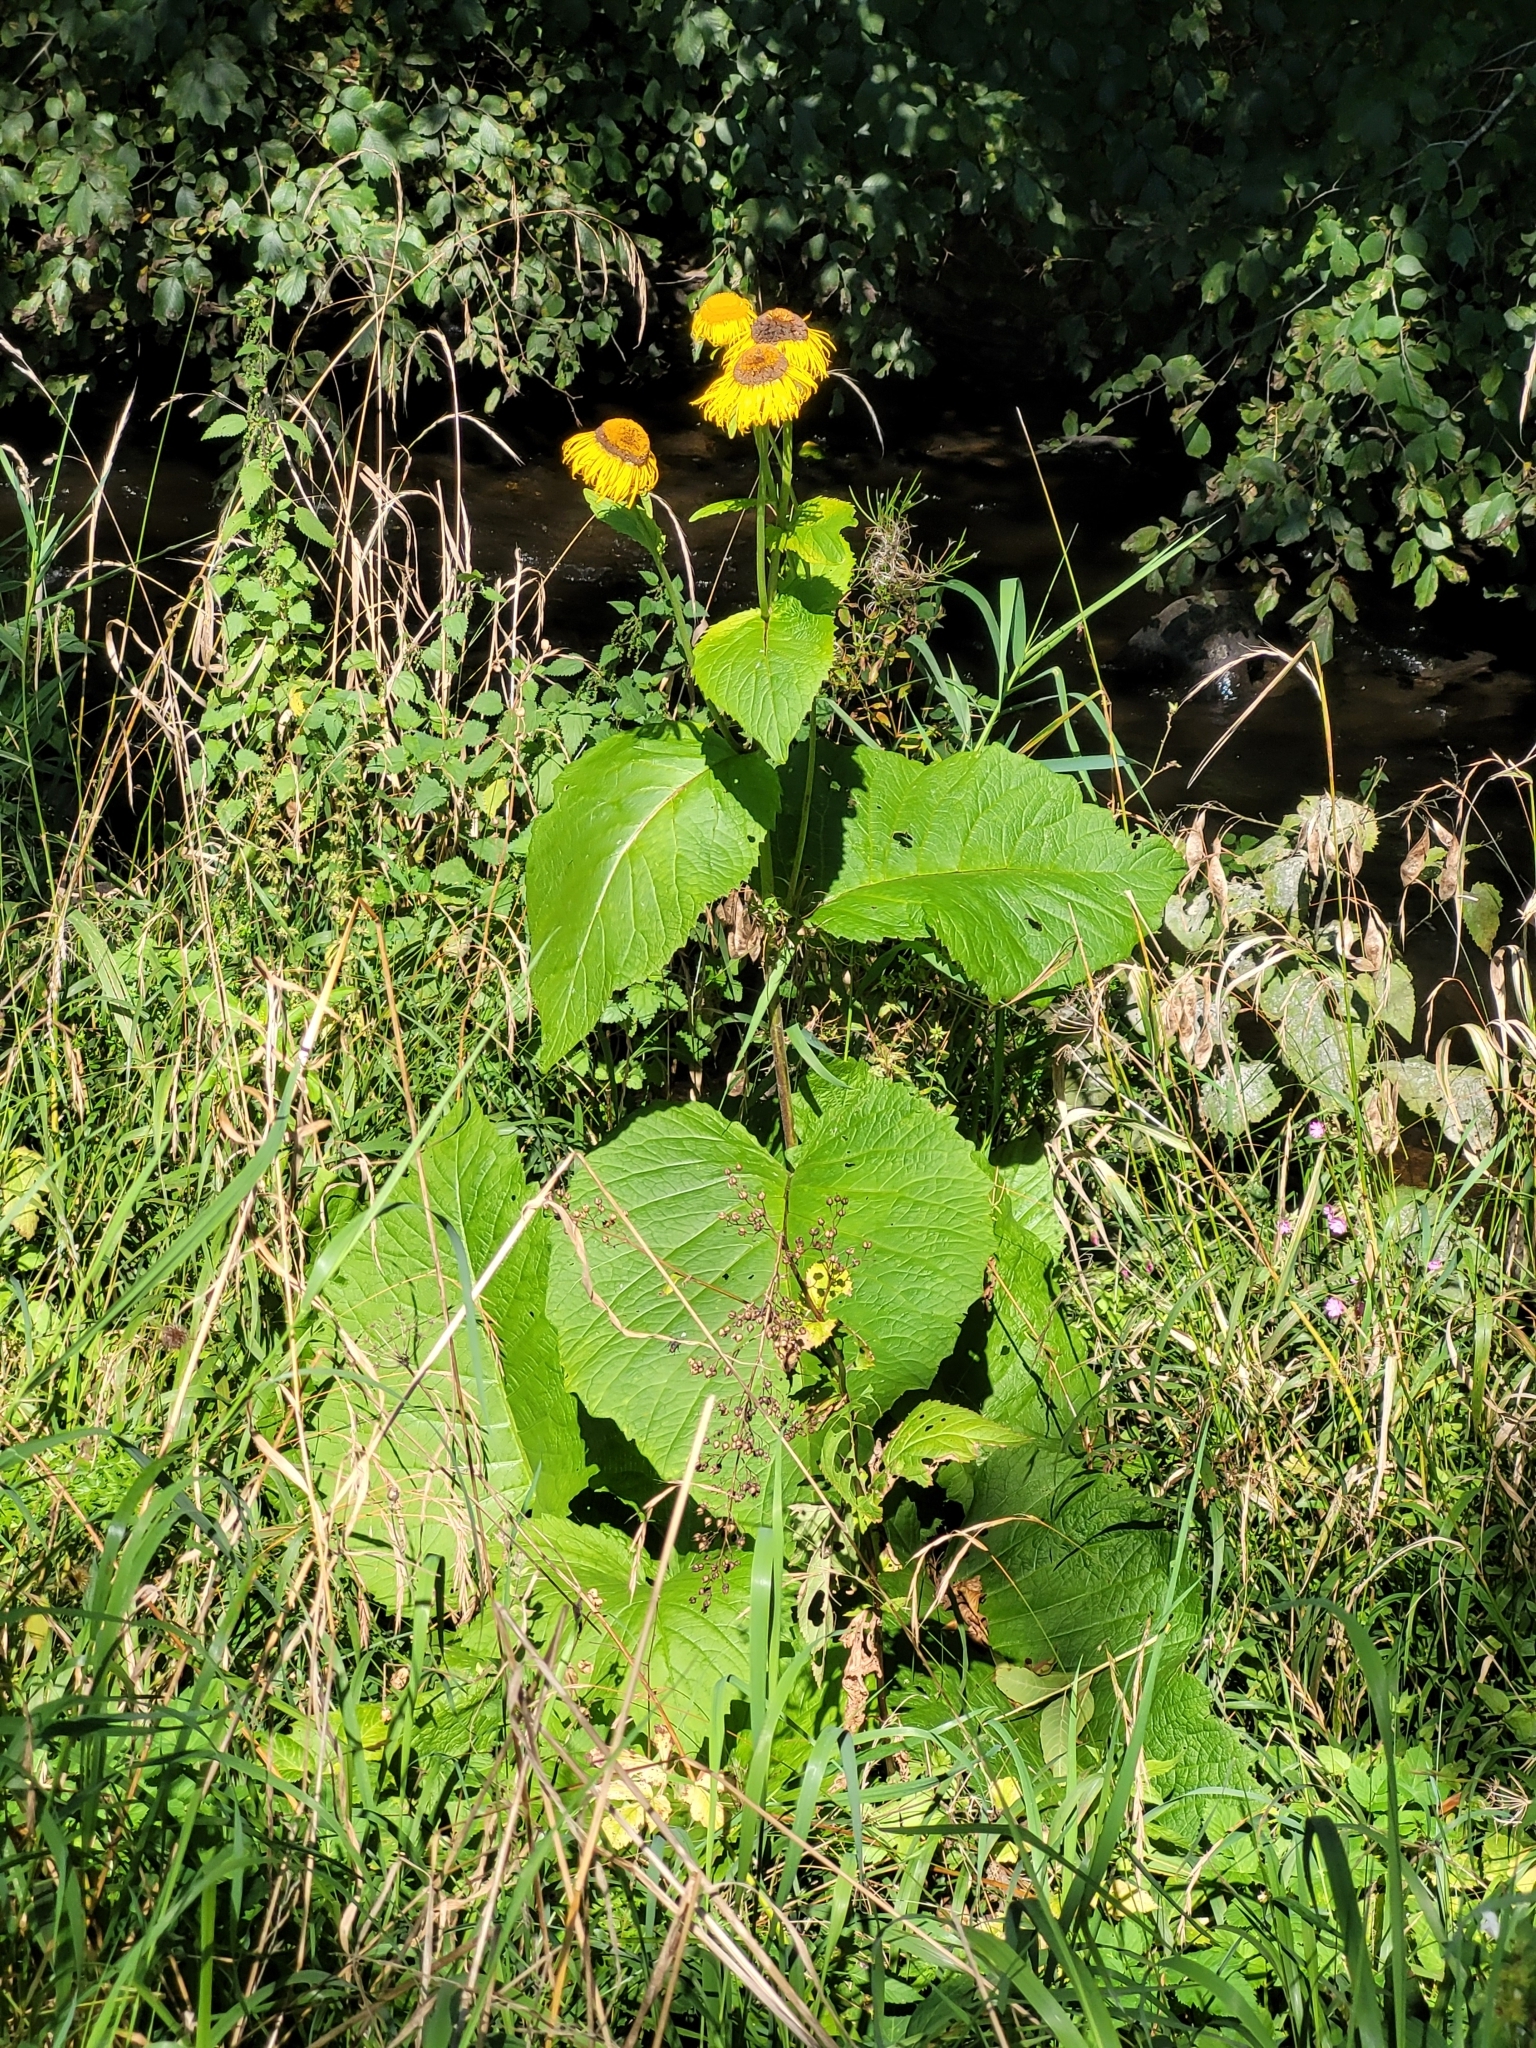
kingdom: Plantae
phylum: Tracheophyta
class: Magnoliopsida
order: Asterales
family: Asteraceae
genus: Telekia
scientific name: Telekia speciosa
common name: Yellow oxeye
